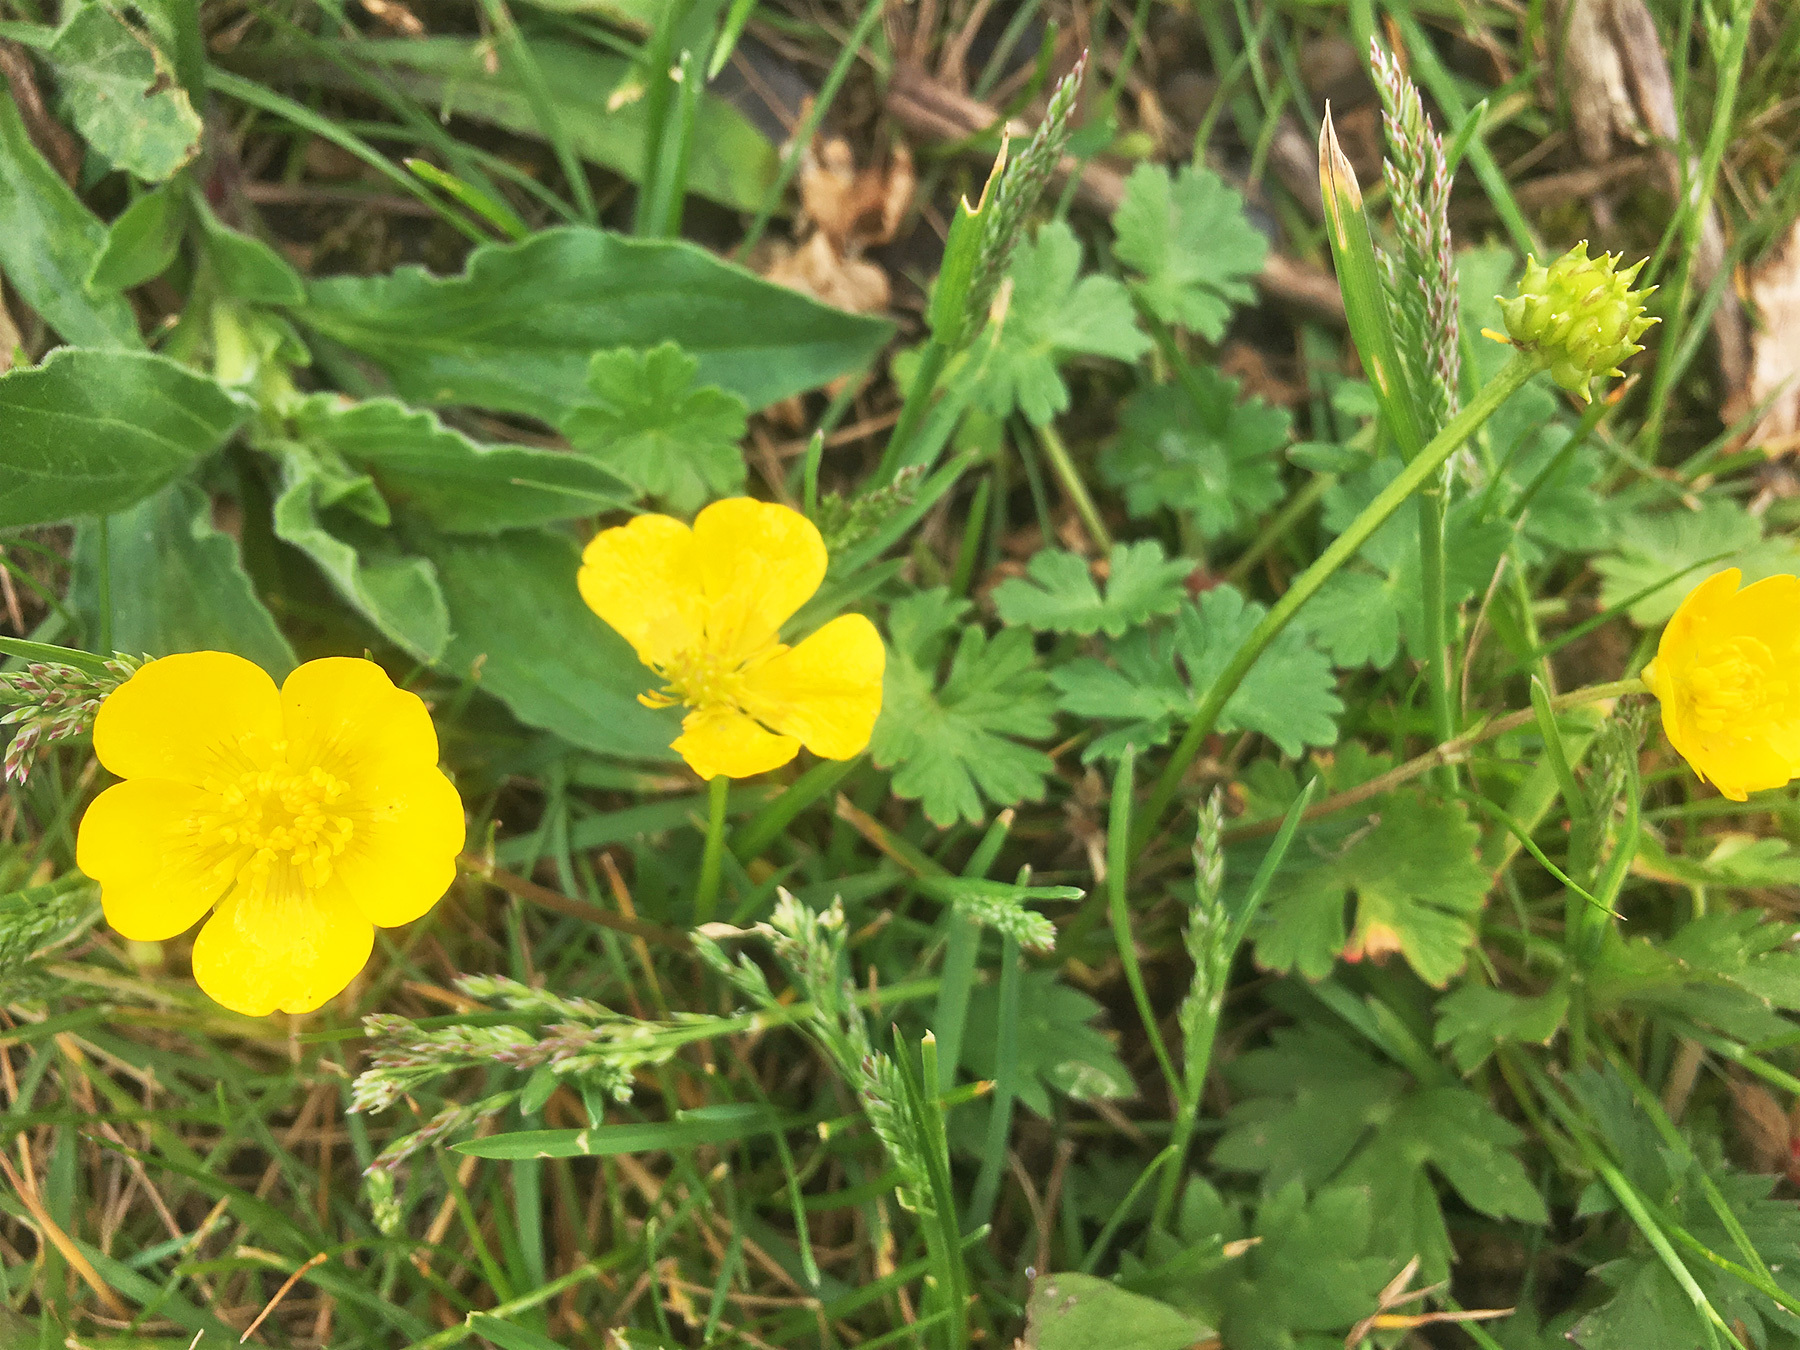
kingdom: Plantae
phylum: Tracheophyta
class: Magnoliopsida
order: Ranunculales
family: Ranunculaceae
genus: Ranunculus
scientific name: Ranunculus repens
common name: Creeping buttercup
